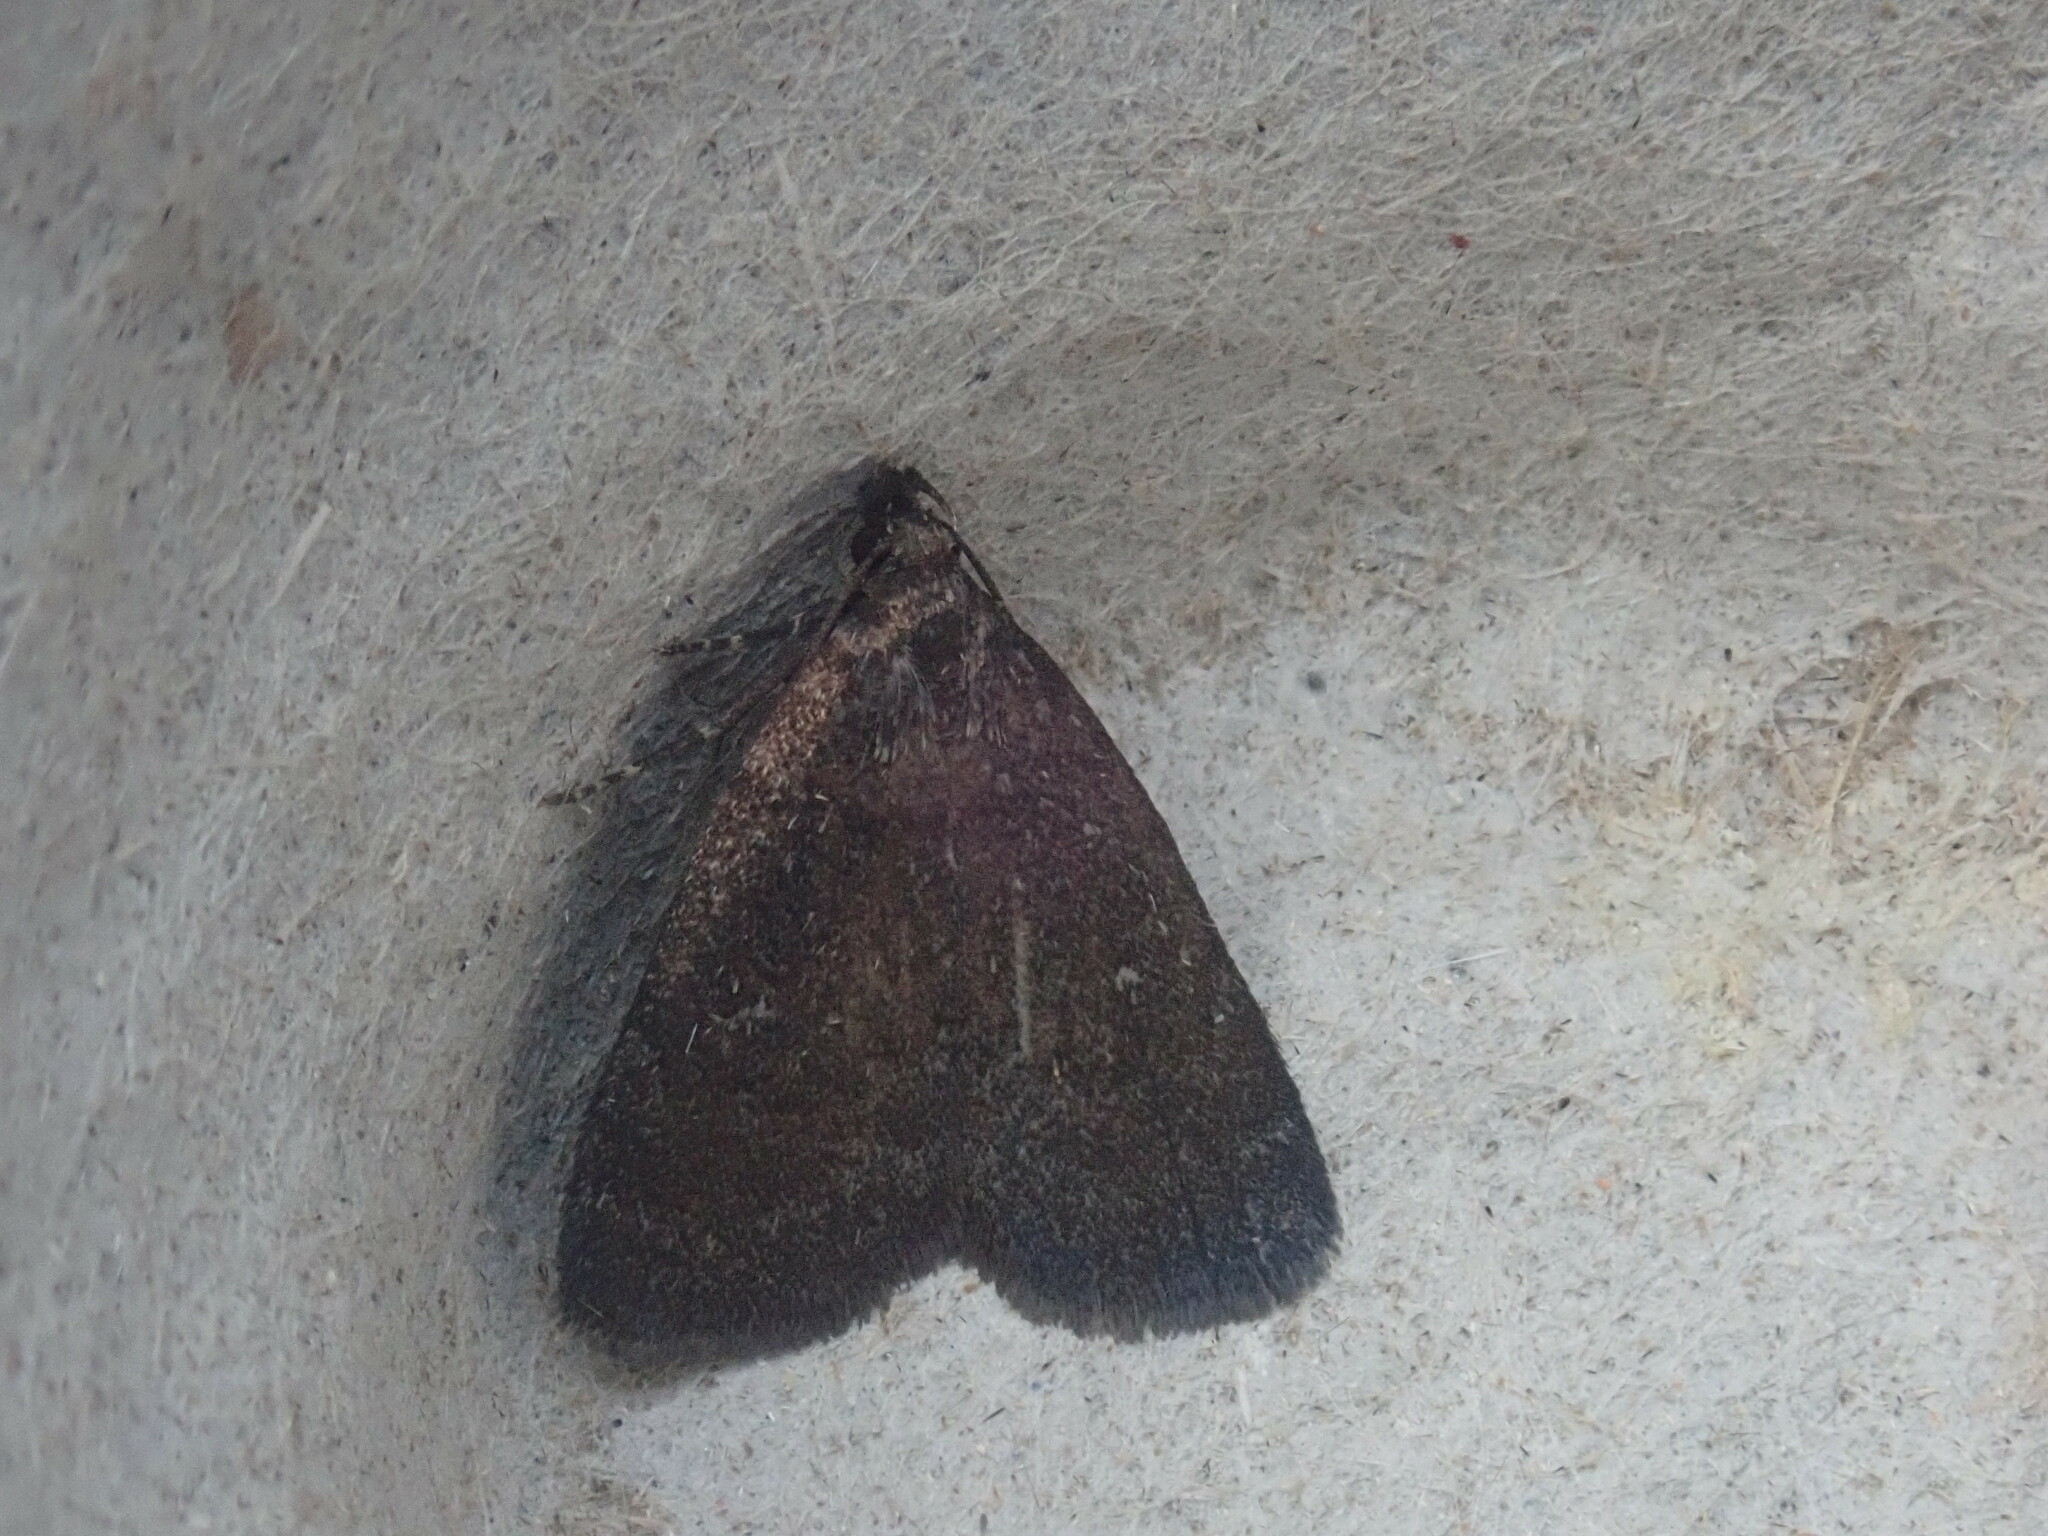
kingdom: Animalia
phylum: Arthropoda
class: Insecta
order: Lepidoptera
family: Erebidae
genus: Idia
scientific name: Idia rotundalis
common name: Rotund idia moth
